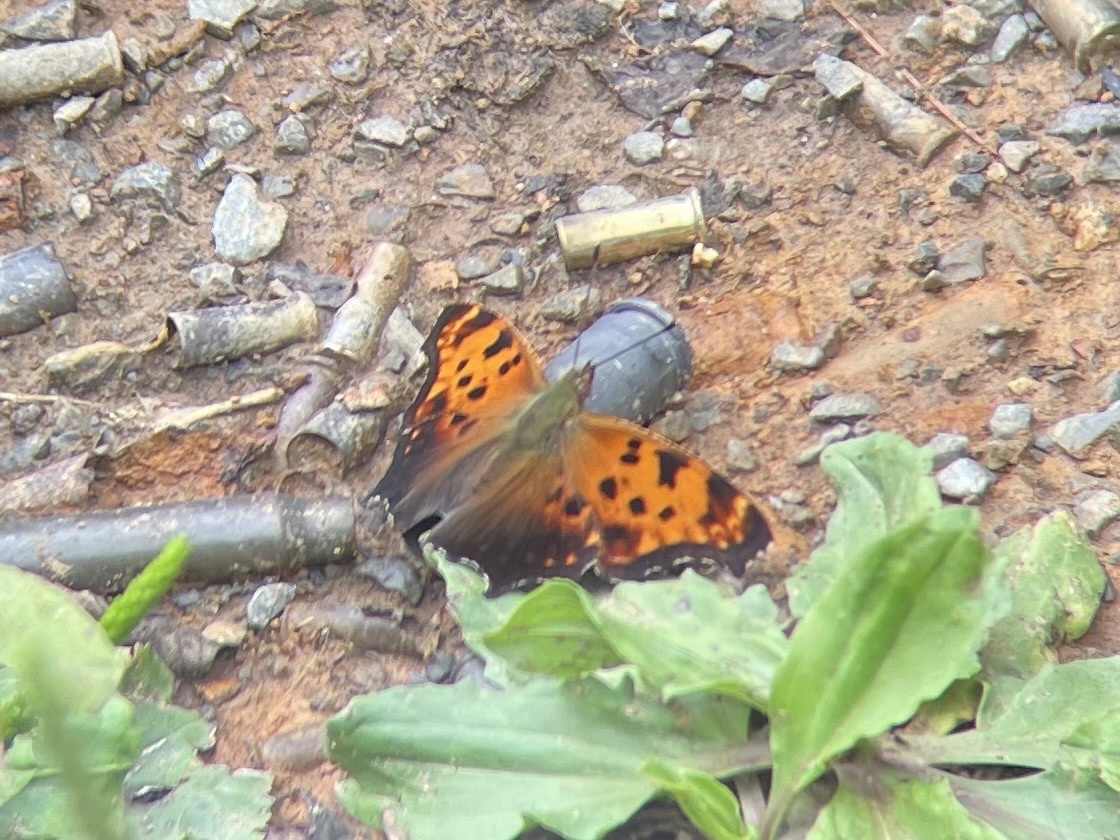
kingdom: Animalia
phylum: Arthropoda
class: Insecta
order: Lepidoptera
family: Nymphalidae
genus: Polygonia
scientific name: Polygonia comma
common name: Eastern comma
